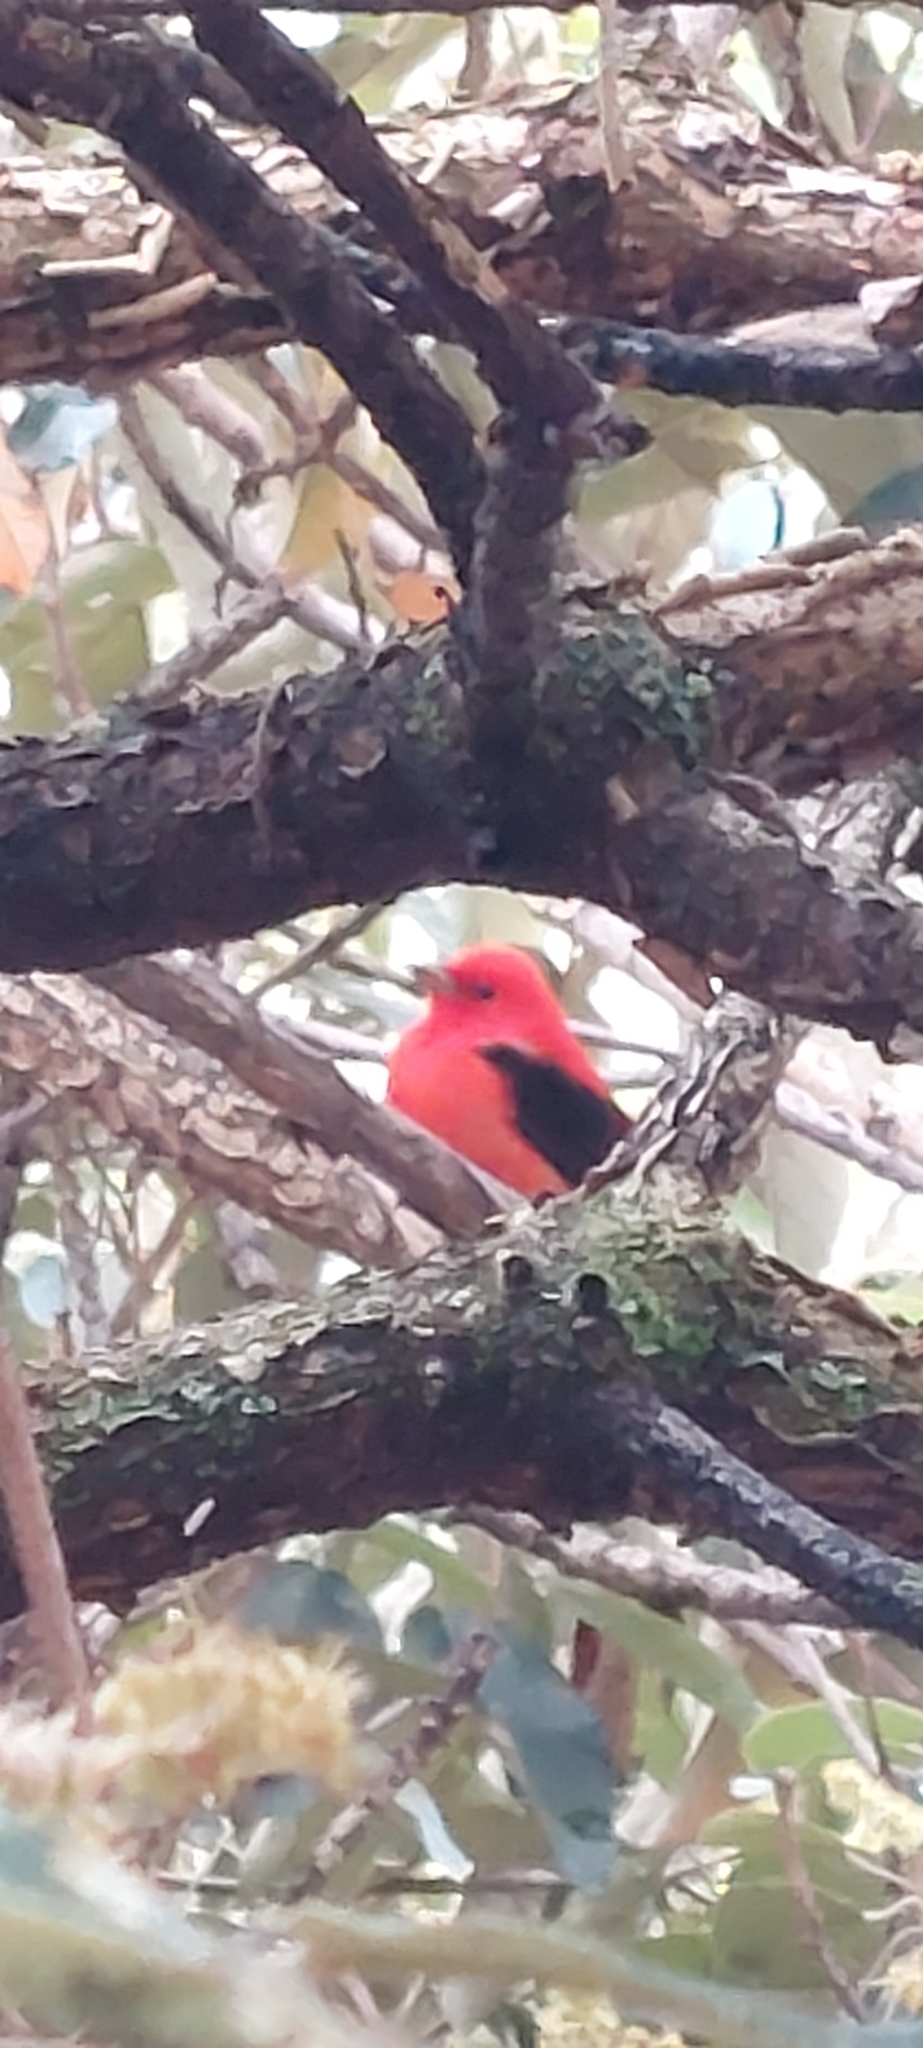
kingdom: Animalia
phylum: Chordata
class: Aves
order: Passeriformes
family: Cardinalidae
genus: Piranga
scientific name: Piranga olivacea
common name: Scarlet tanager
